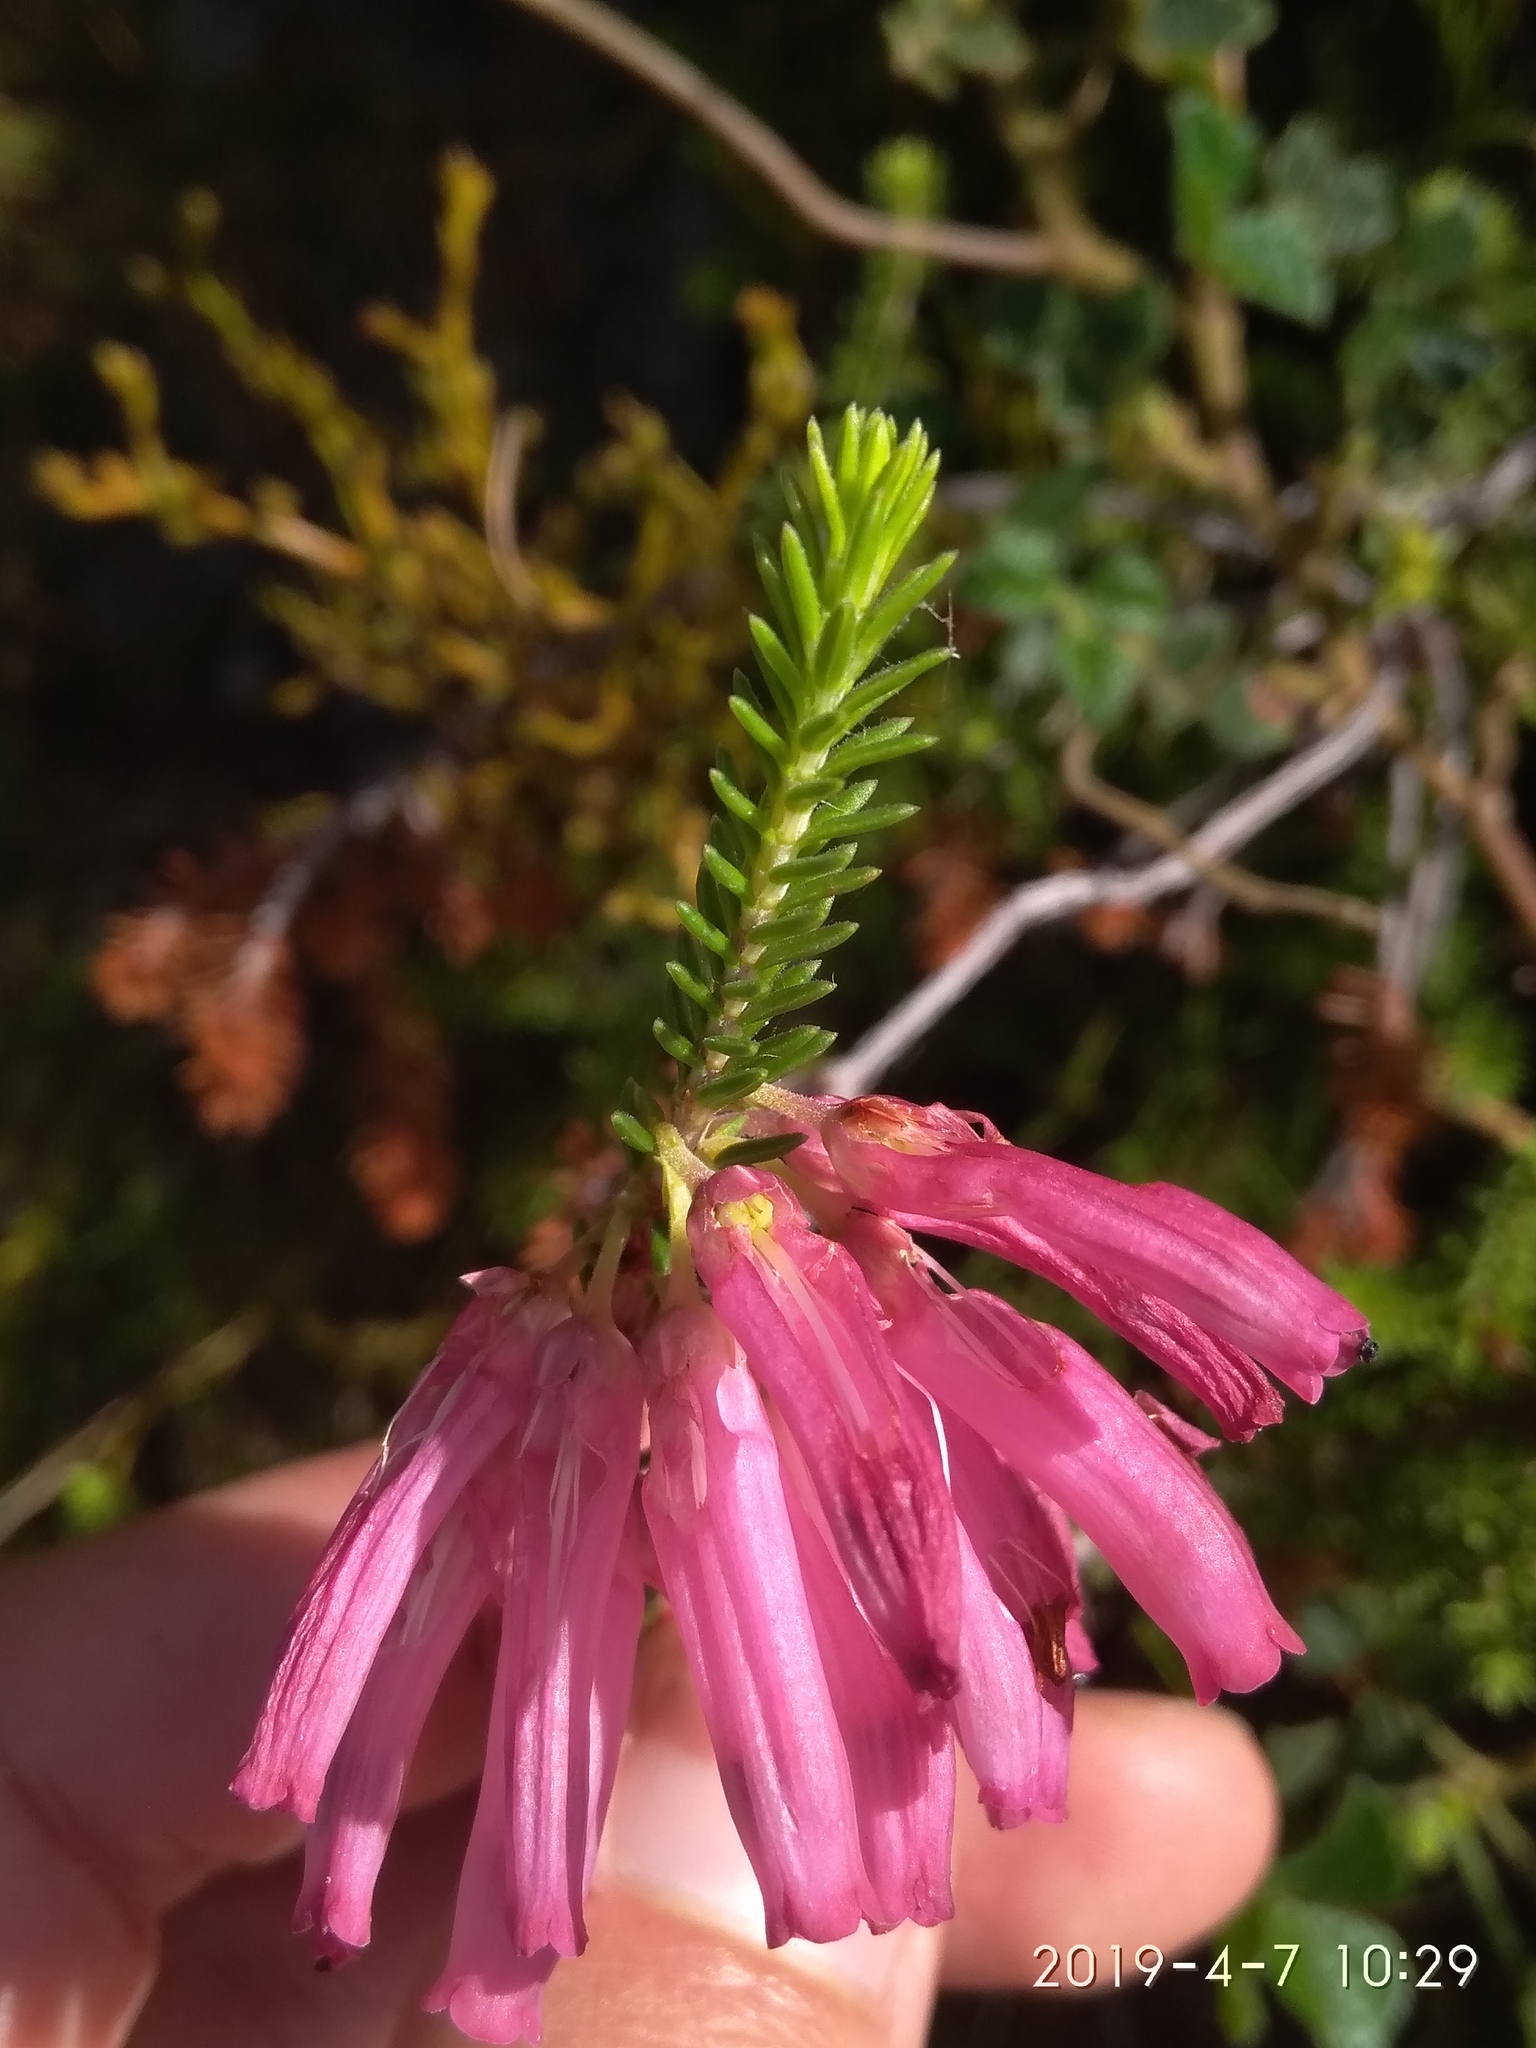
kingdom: Plantae
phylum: Tracheophyta
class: Magnoliopsida
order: Ericales
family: Ericaceae
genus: Erica
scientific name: Erica mammosa
